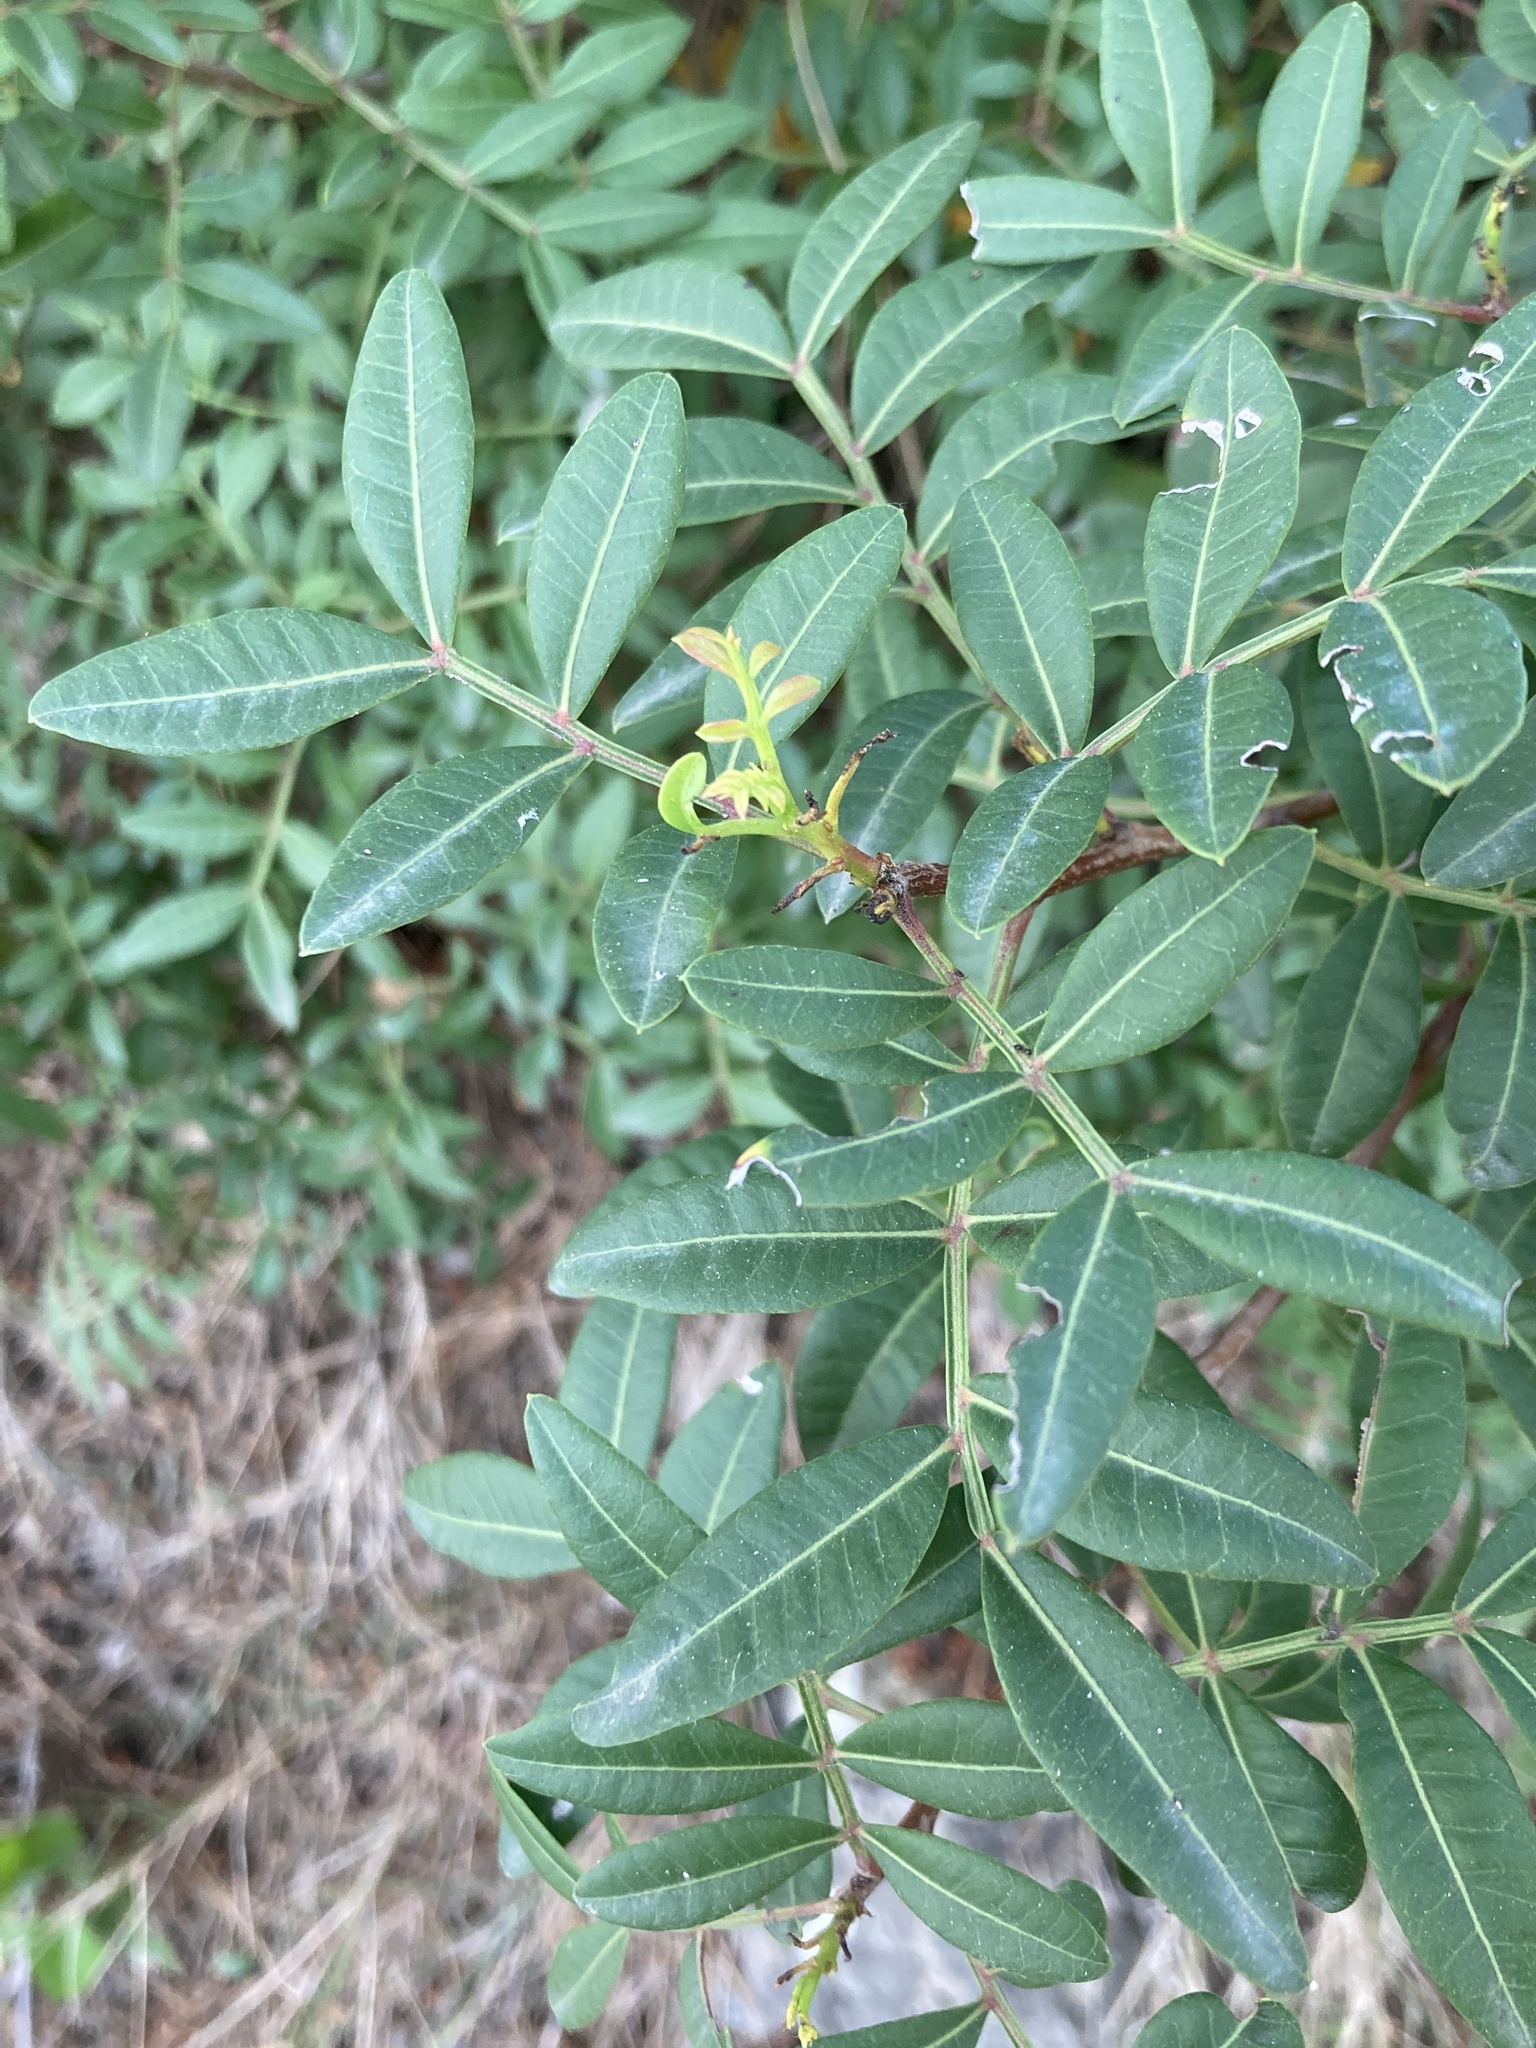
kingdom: Plantae
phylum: Tracheophyta
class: Magnoliopsida
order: Sapindales
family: Anacardiaceae
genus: Pistacia
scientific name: Pistacia lentiscus
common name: Lentisk
